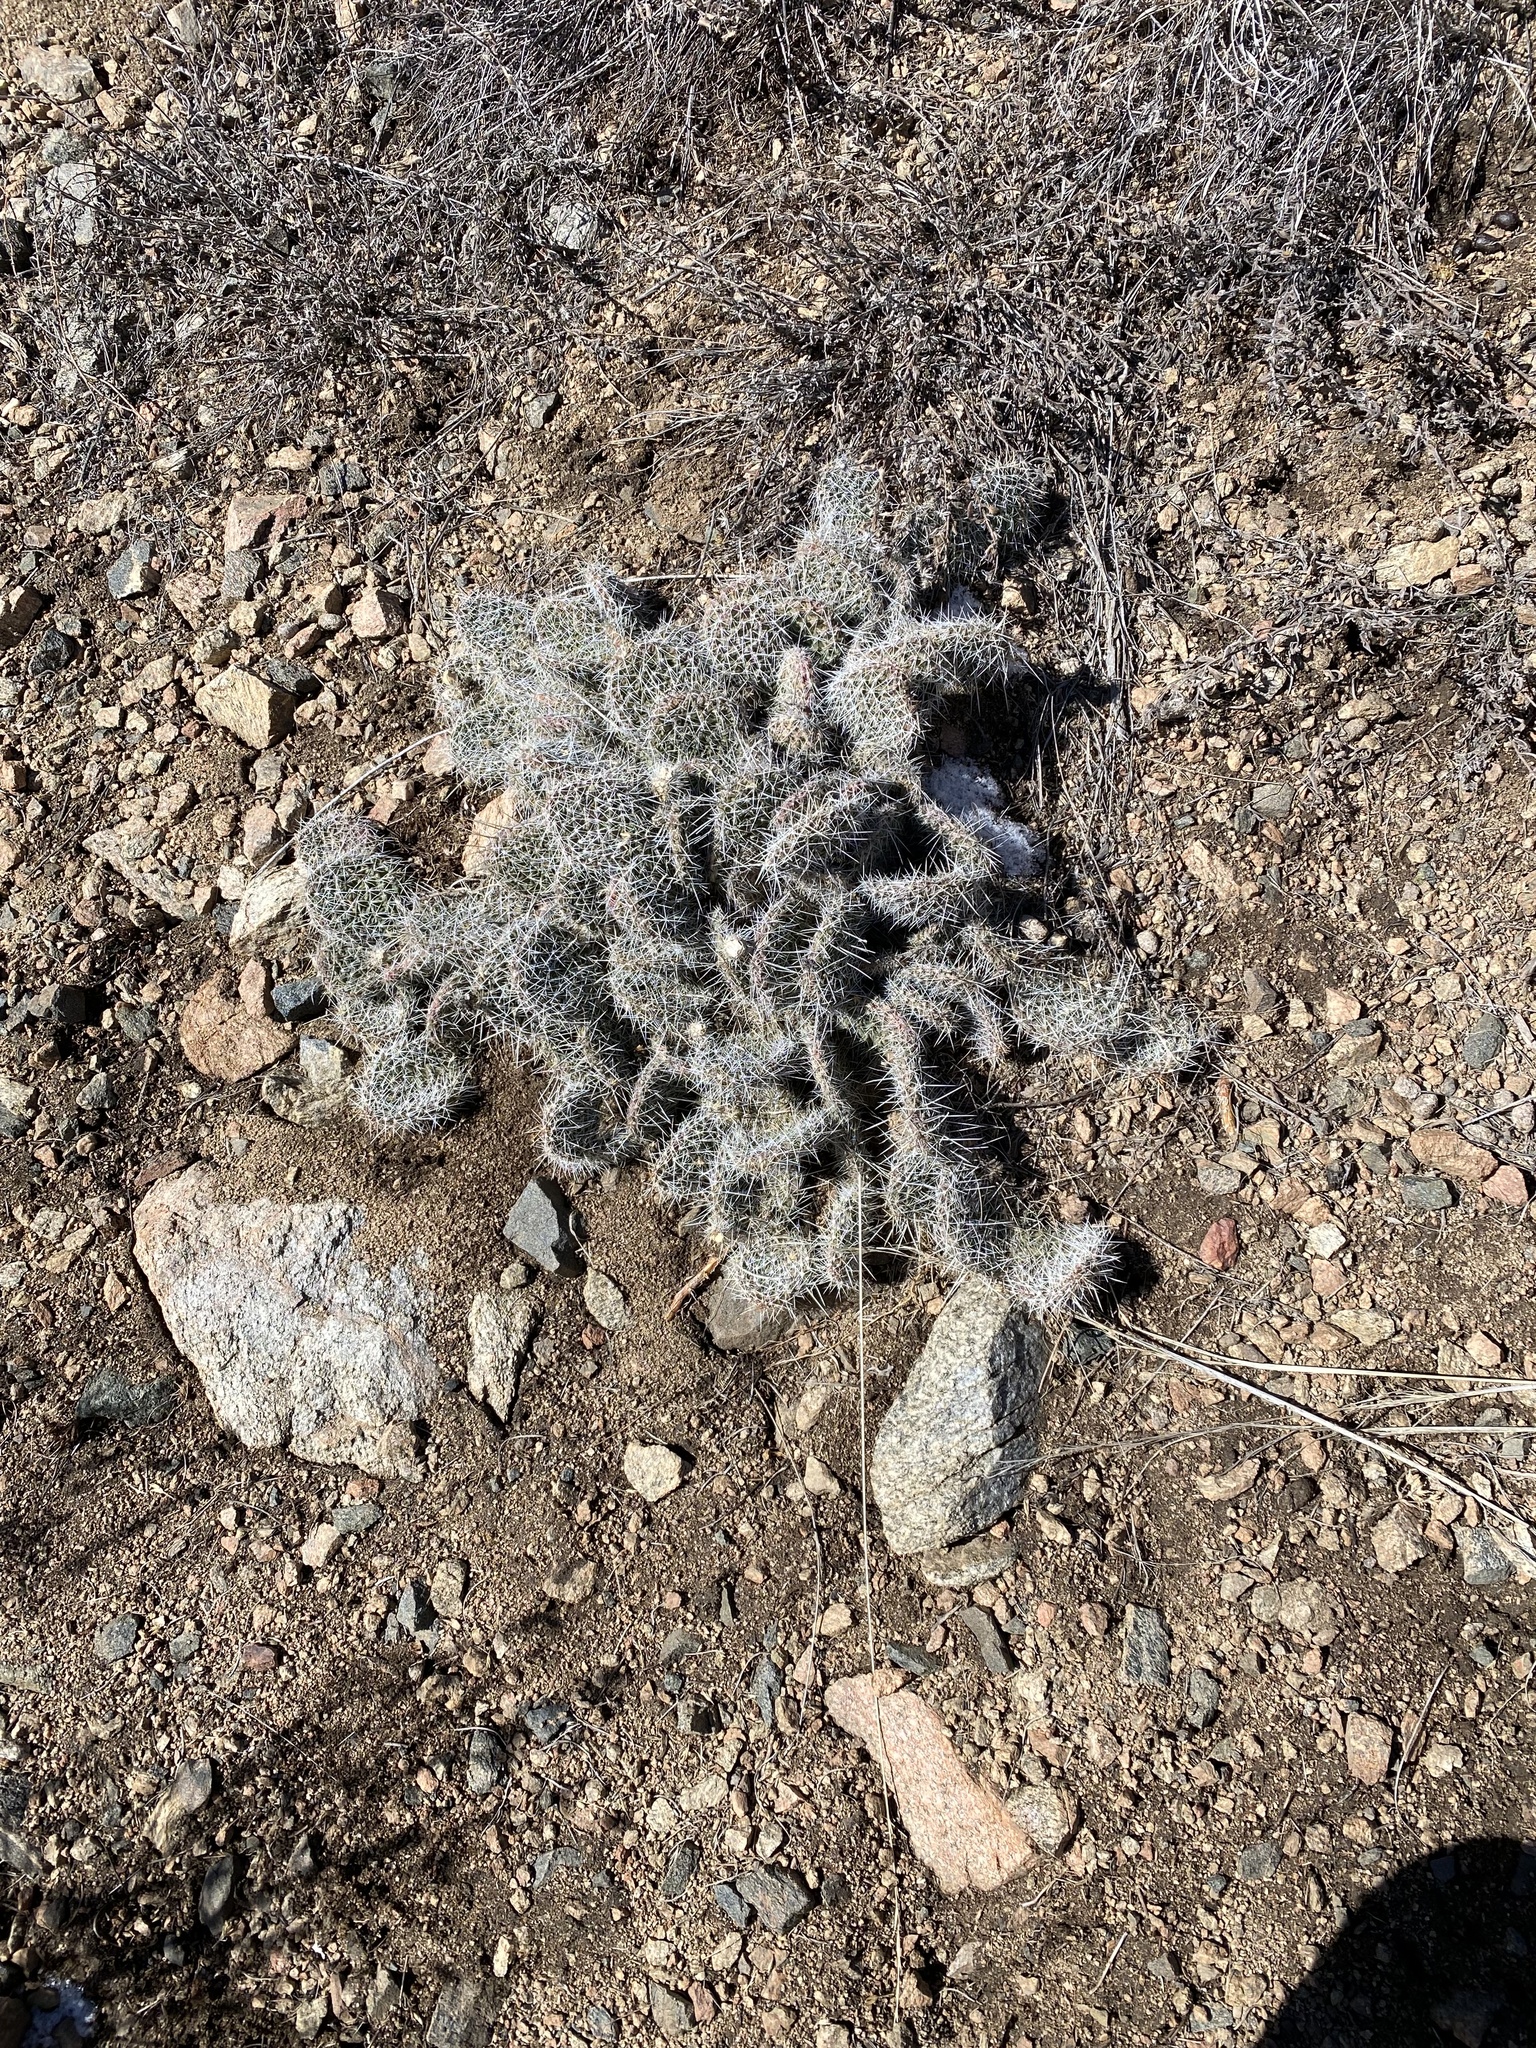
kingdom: Plantae
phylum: Tracheophyta
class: Magnoliopsida
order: Caryophyllales
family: Cactaceae
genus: Opuntia
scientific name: Opuntia polyacantha
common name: Plains prickly-pear
